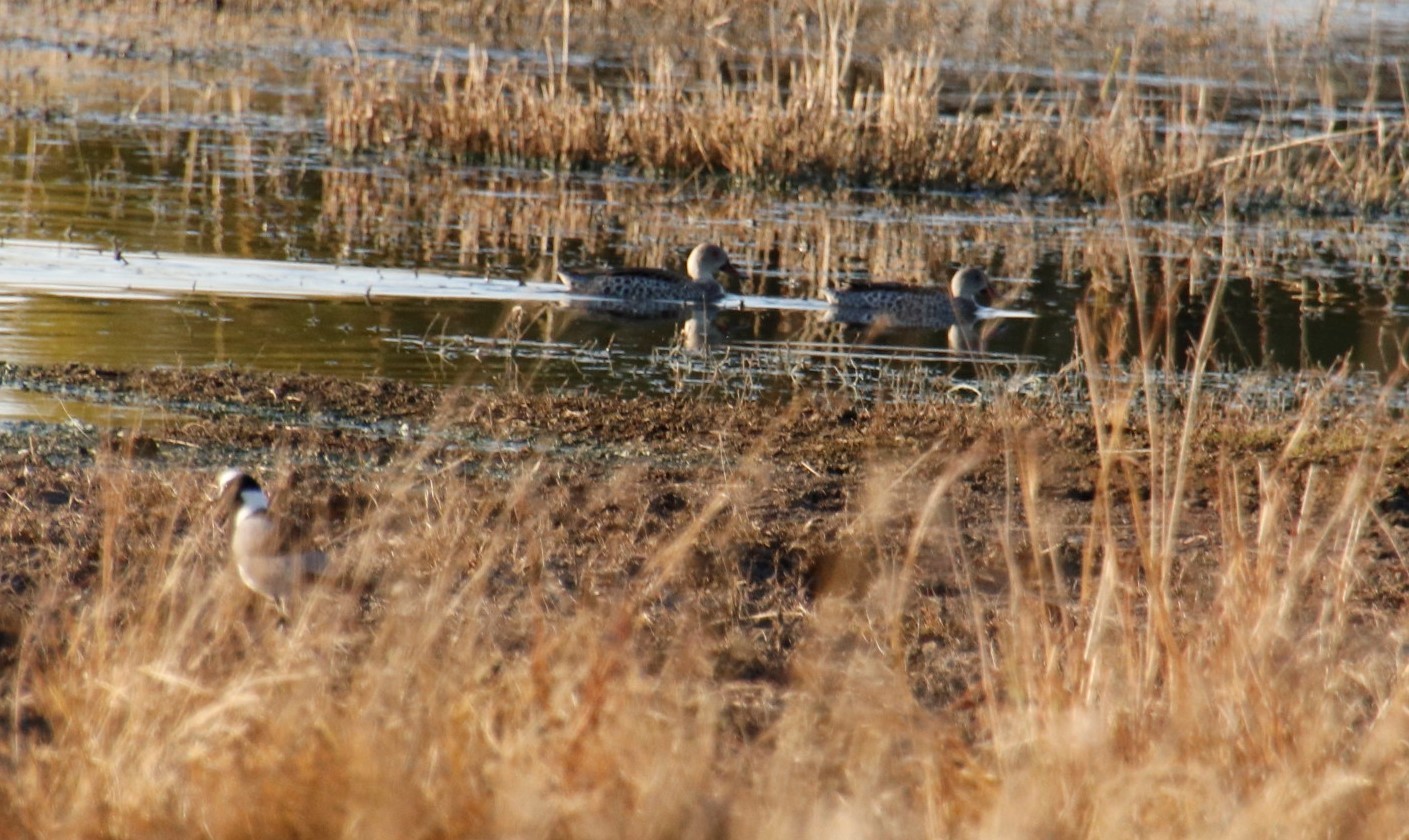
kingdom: Animalia
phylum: Chordata
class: Aves
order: Anseriformes
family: Anatidae
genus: Anas
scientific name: Anas capensis
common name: Cape teal
